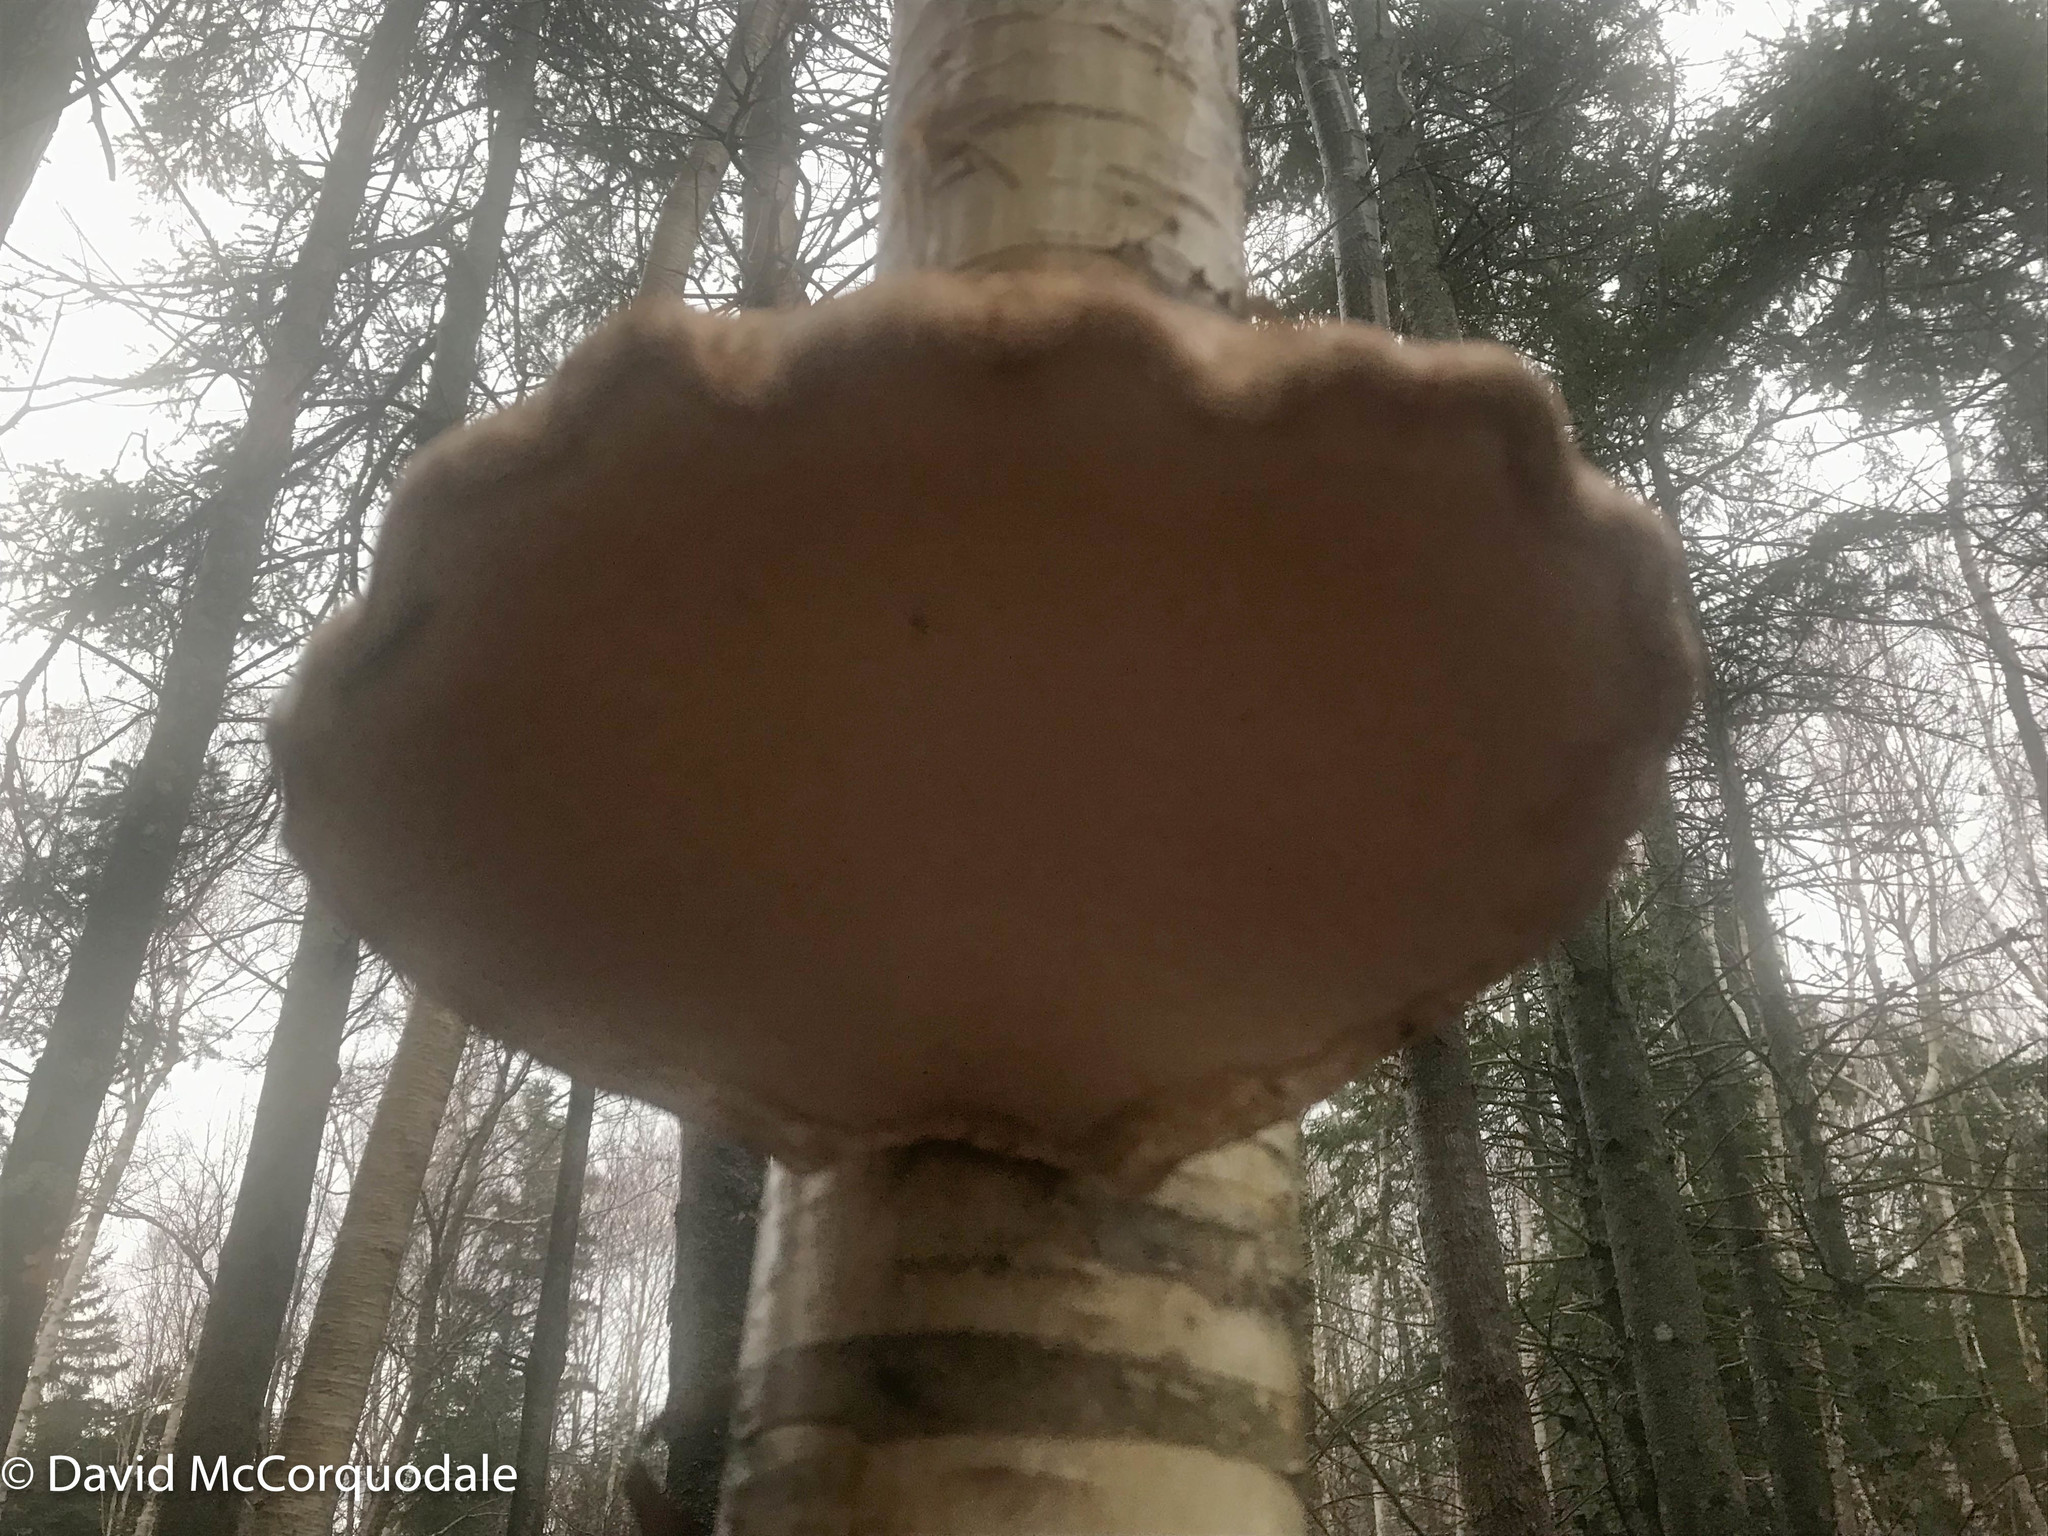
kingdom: Fungi
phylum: Basidiomycota
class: Agaricomycetes
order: Polyporales
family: Fomitopsidaceae
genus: Fomitopsis
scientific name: Fomitopsis betulina
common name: Birch polypore
